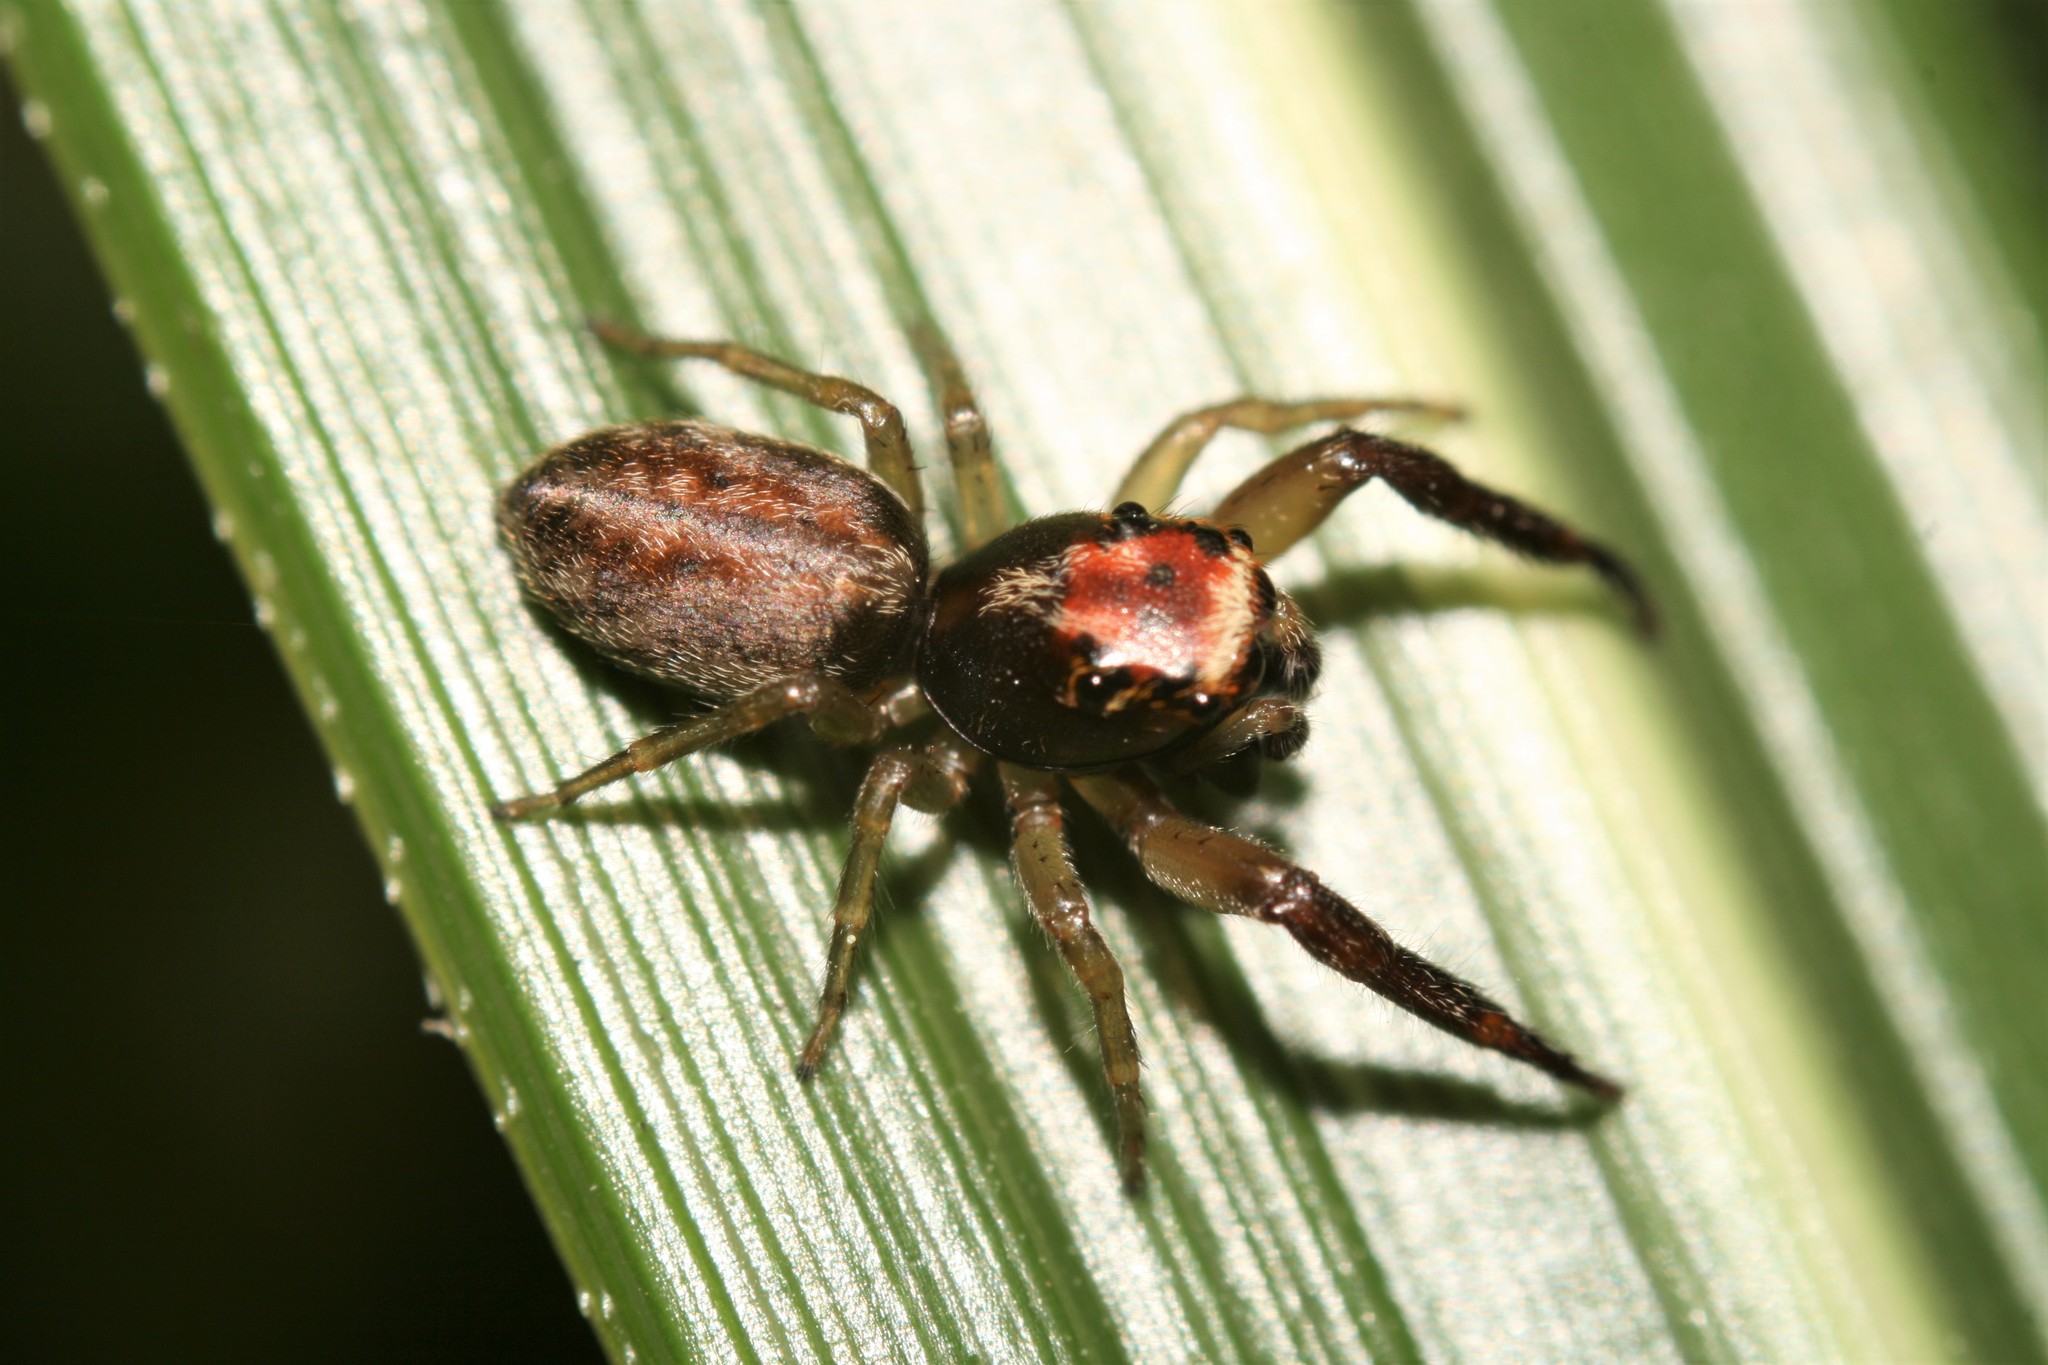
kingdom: Animalia
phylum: Arthropoda
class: Arachnida
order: Araneae
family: Salticidae
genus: Trite
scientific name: Trite mustilina
